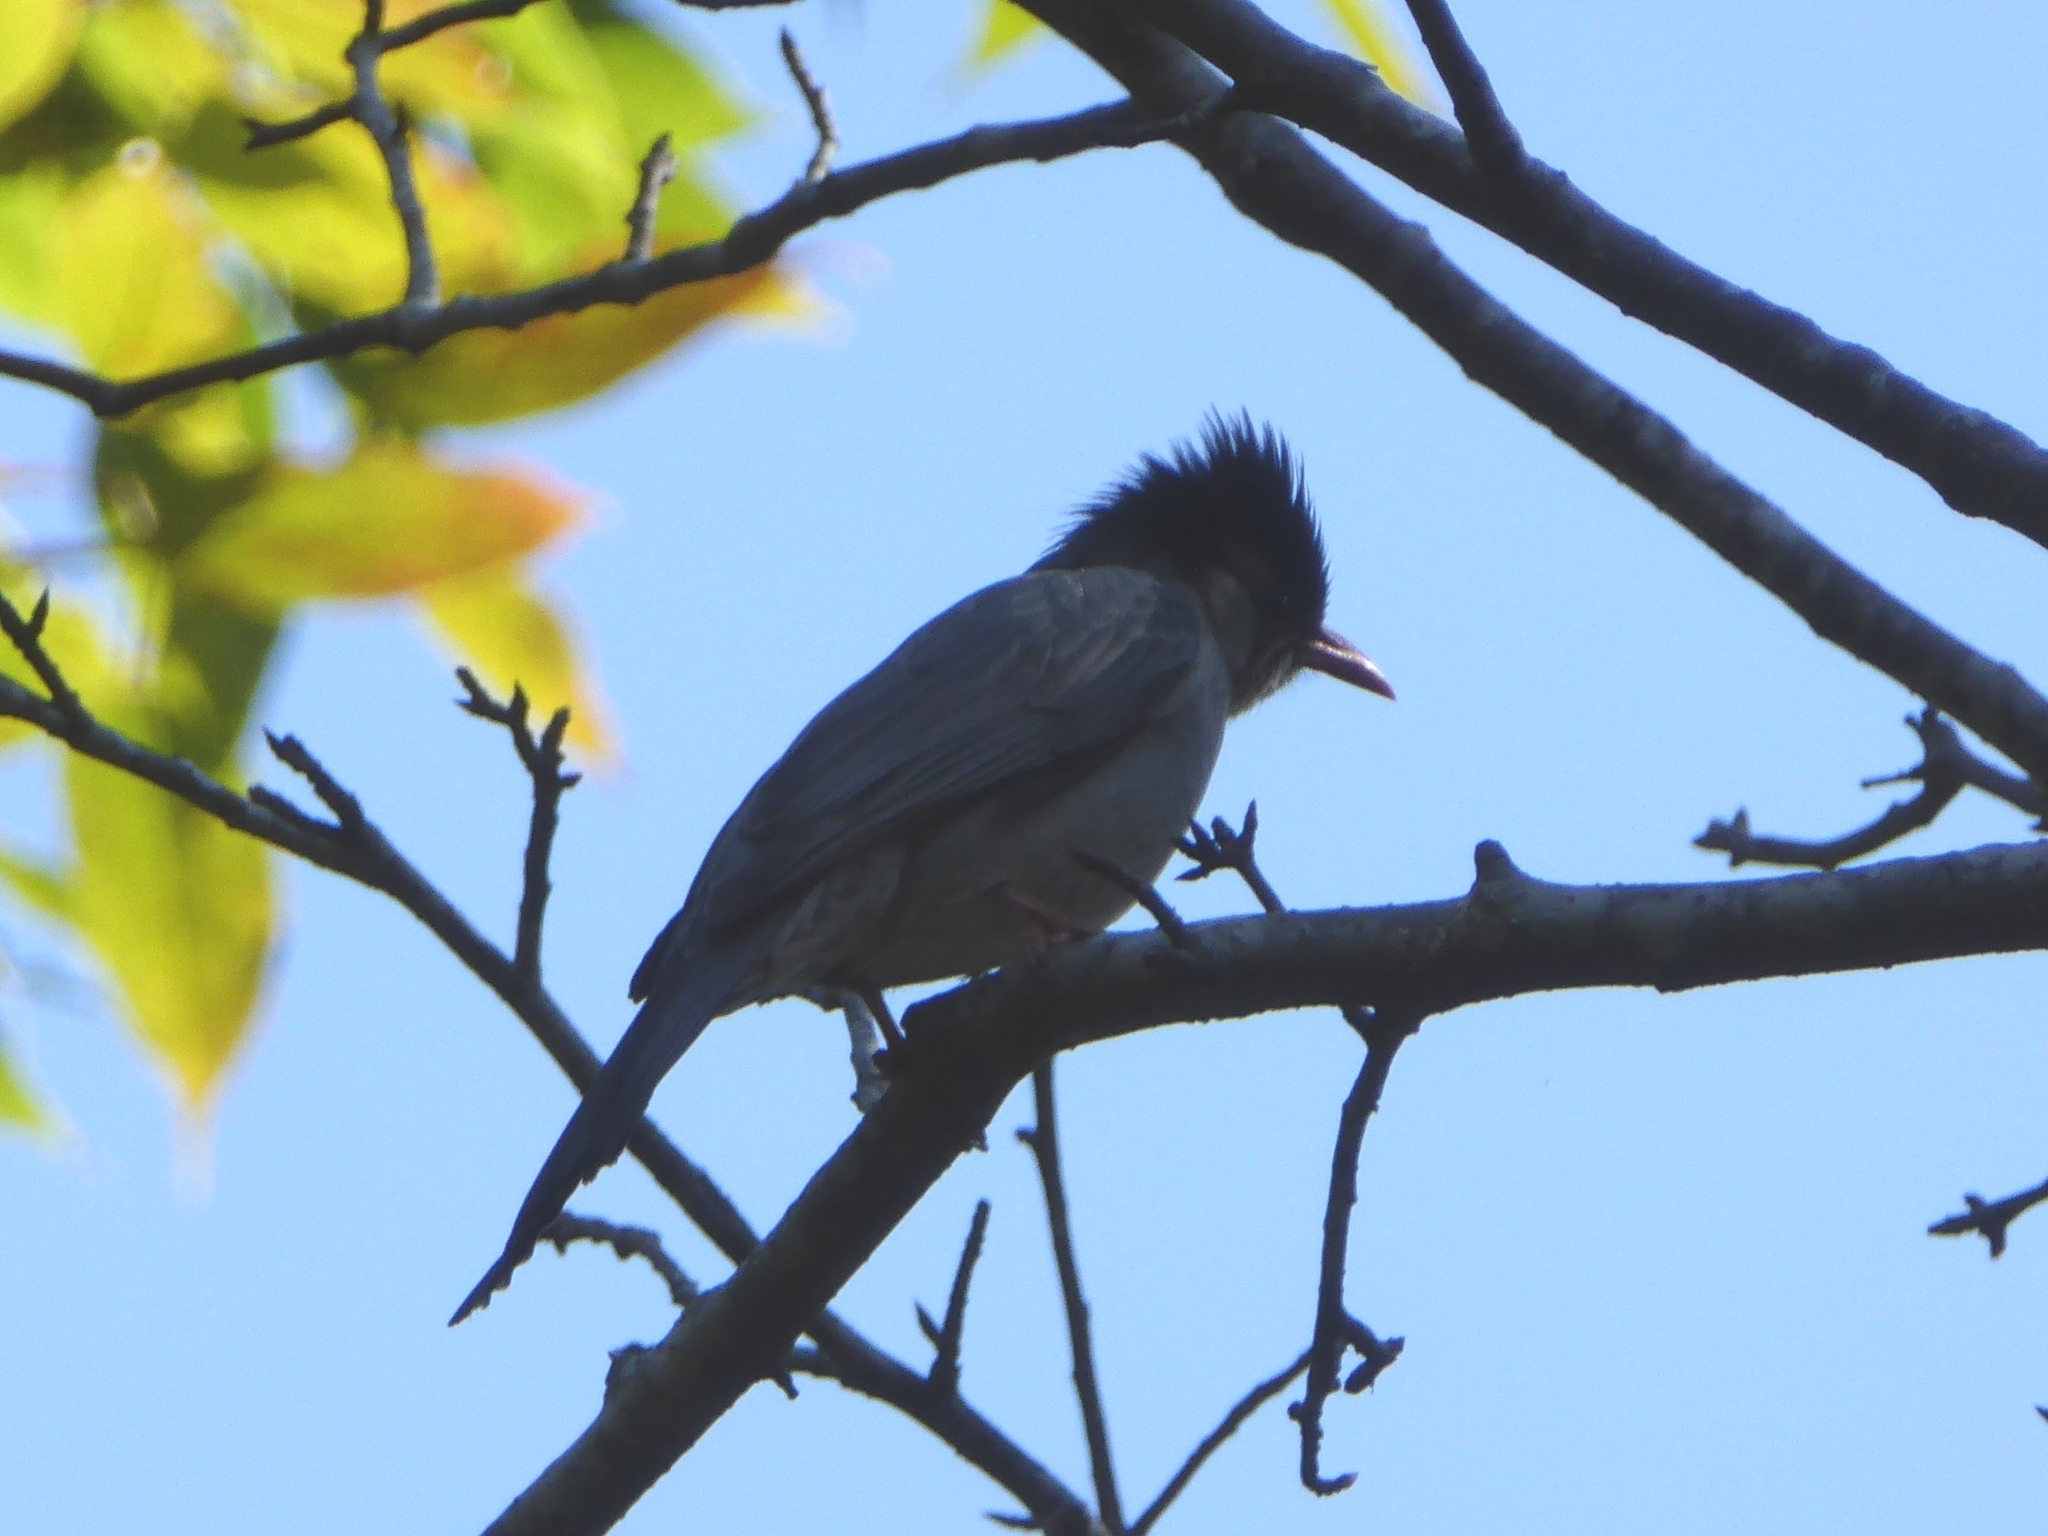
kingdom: Animalia
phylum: Chordata
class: Aves
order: Passeriformes
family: Pycnonotidae
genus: Hypsipetes
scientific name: Hypsipetes leucocephalus
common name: Black bulbul
